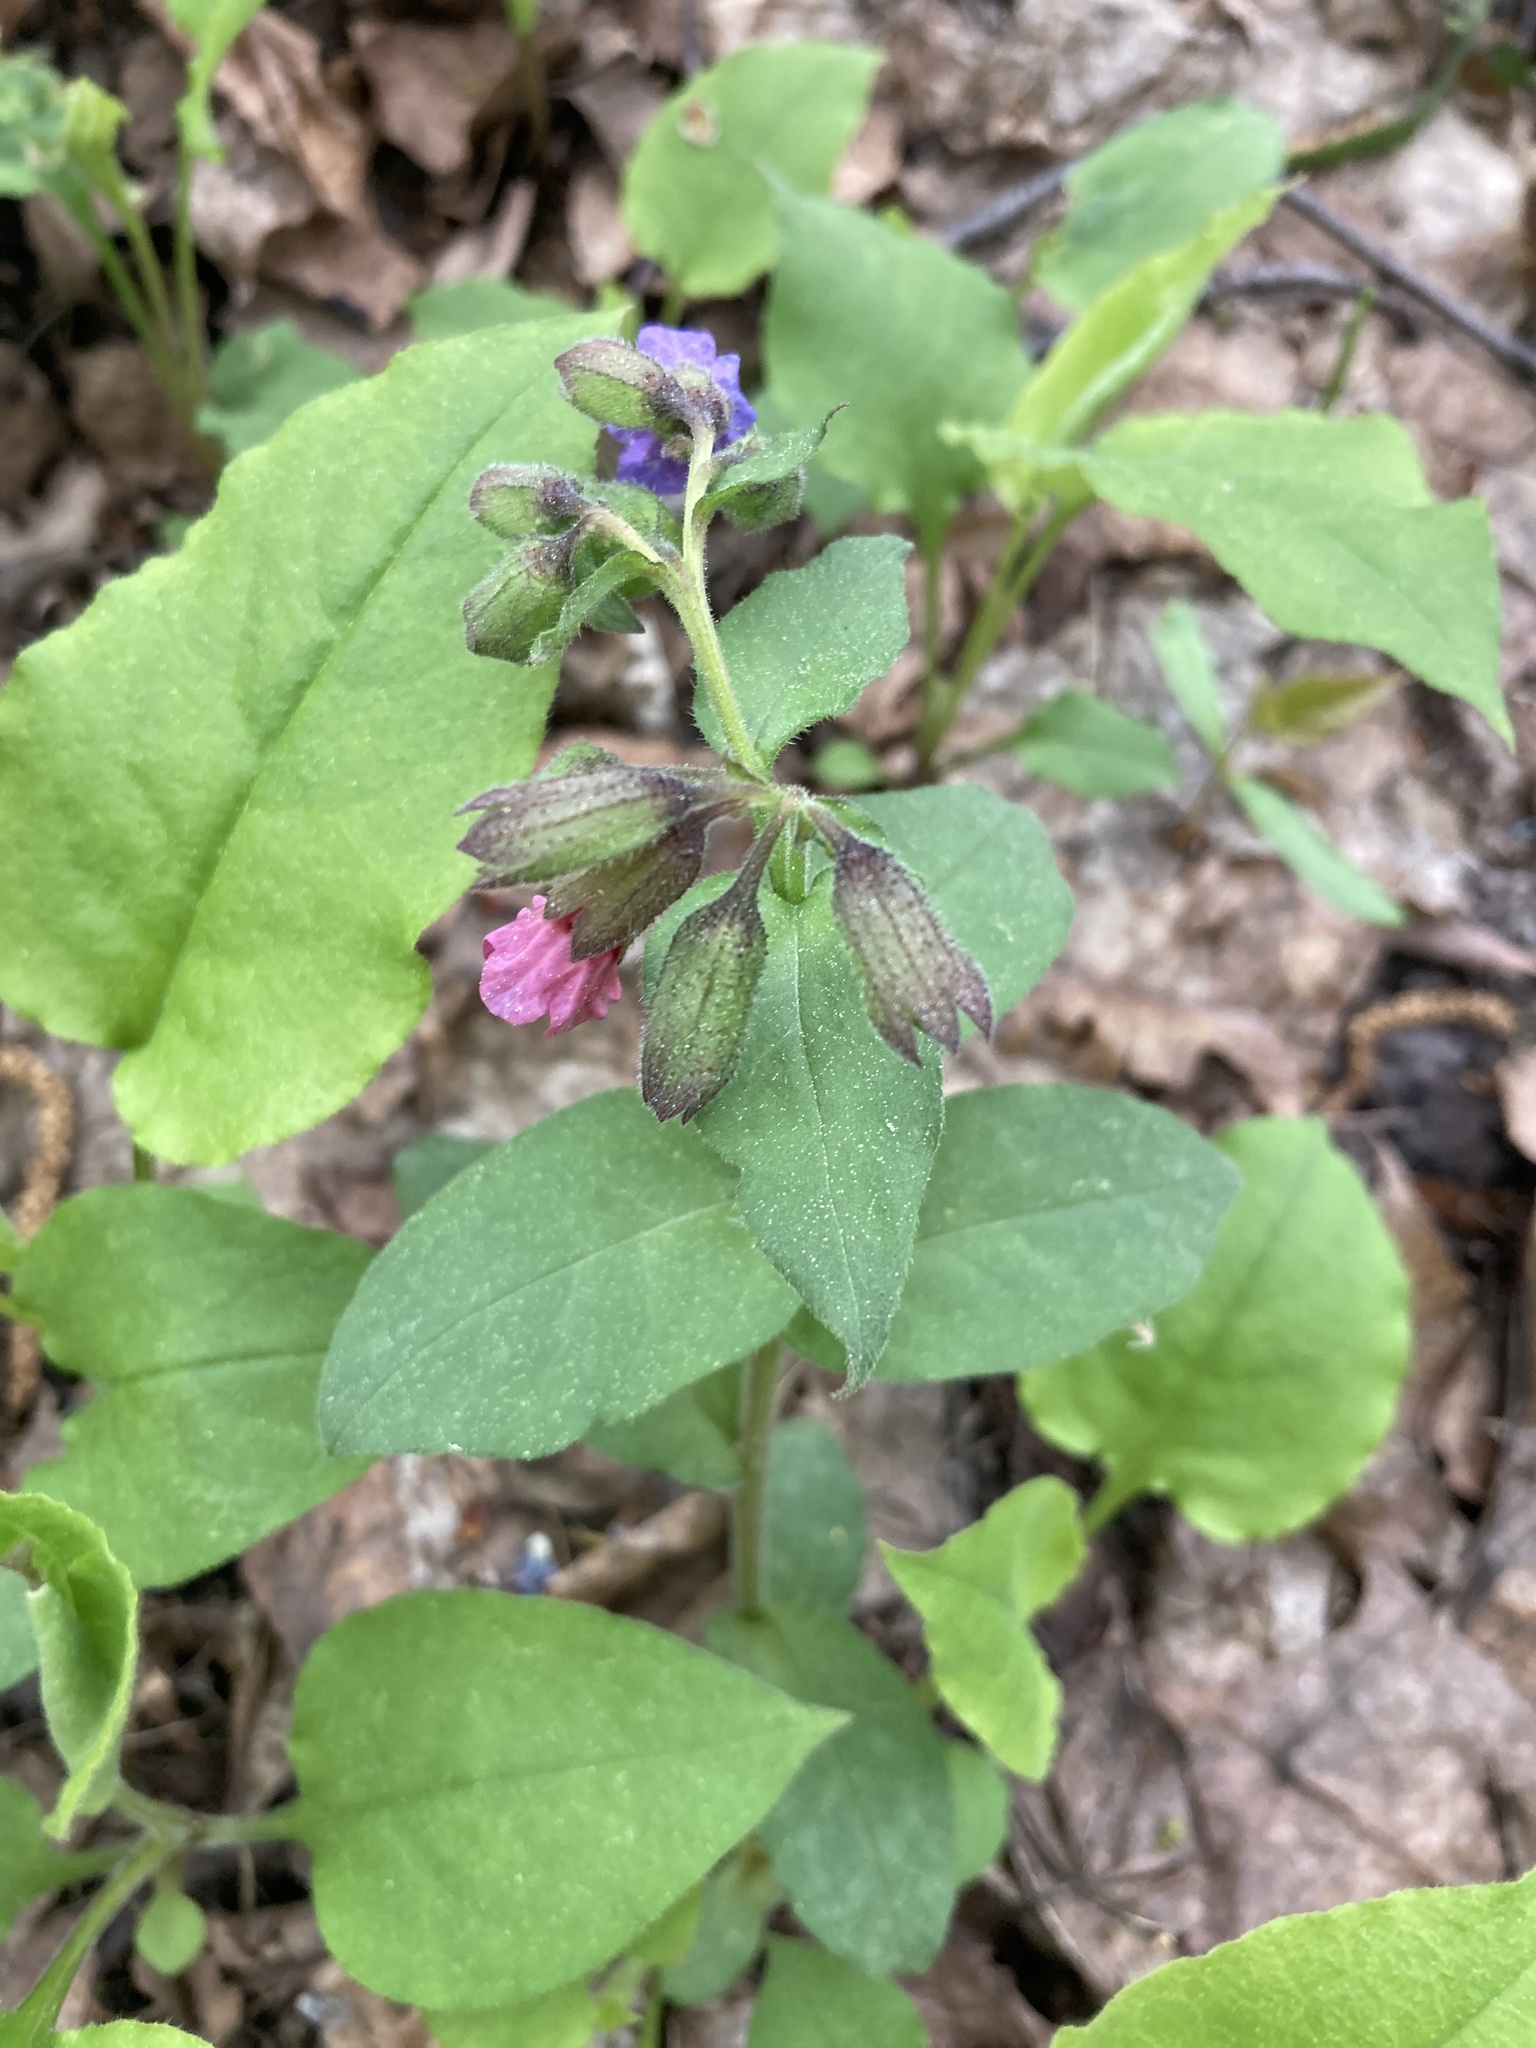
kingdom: Plantae
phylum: Tracheophyta
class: Magnoliopsida
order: Boraginales
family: Boraginaceae
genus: Pulmonaria
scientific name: Pulmonaria obscura
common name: Suffolk lungwort
